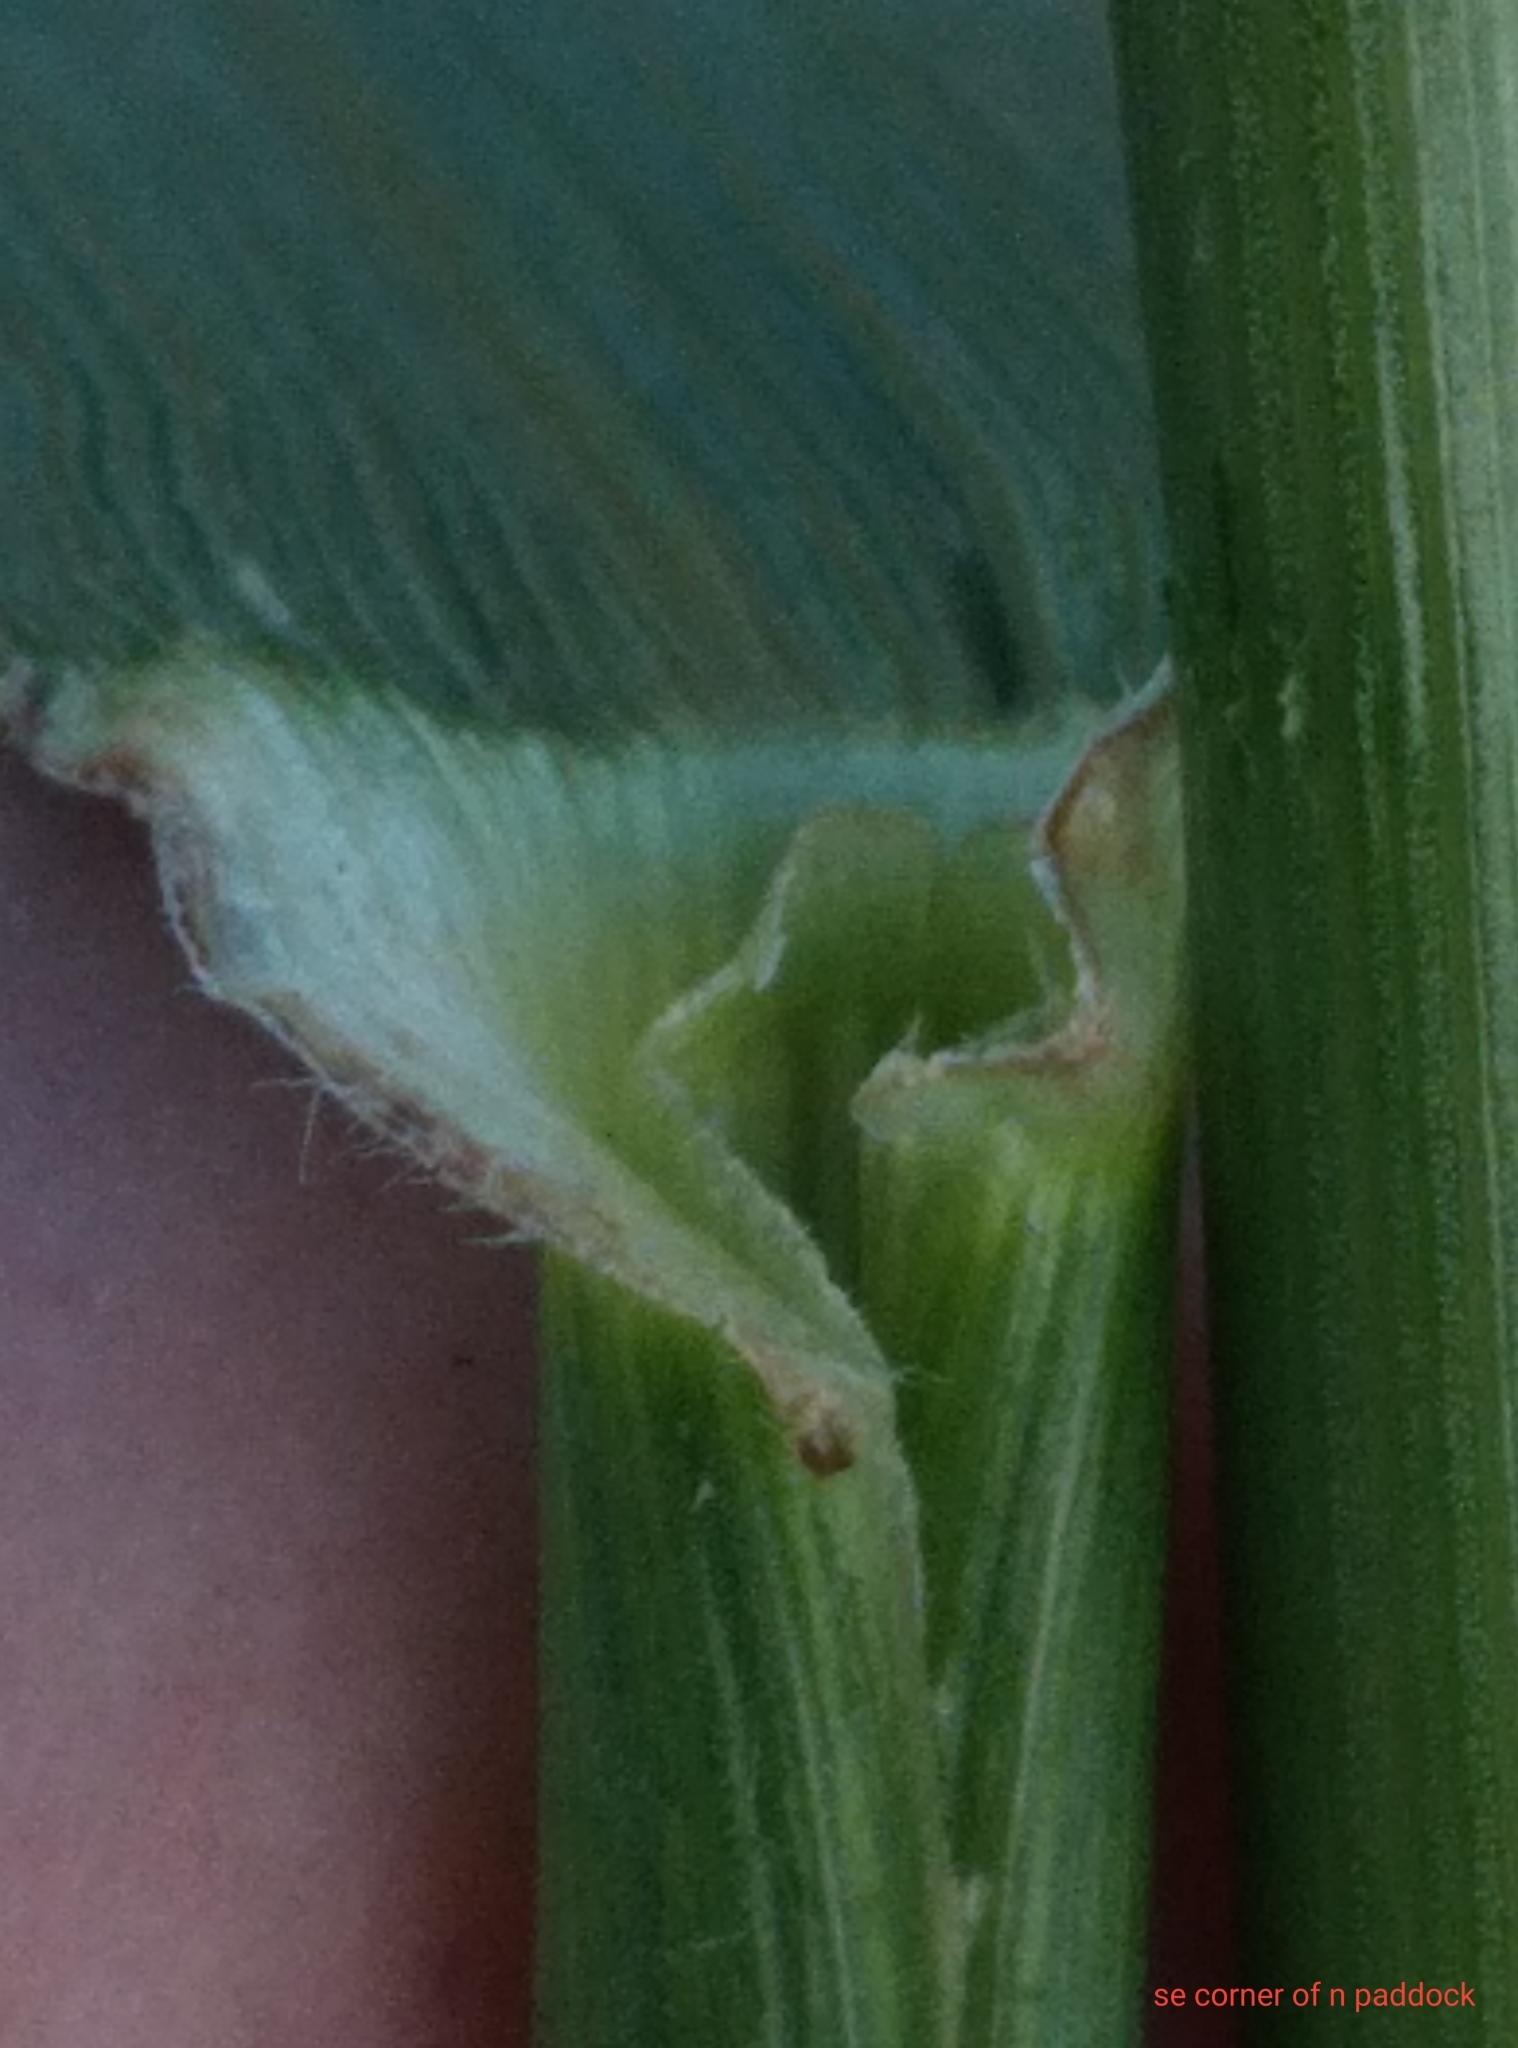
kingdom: Plantae
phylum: Tracheophyta
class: Liliopsida
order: Poales
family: Poaceae
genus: Lolium
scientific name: Lolium arundinaceum
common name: Reed fescue
